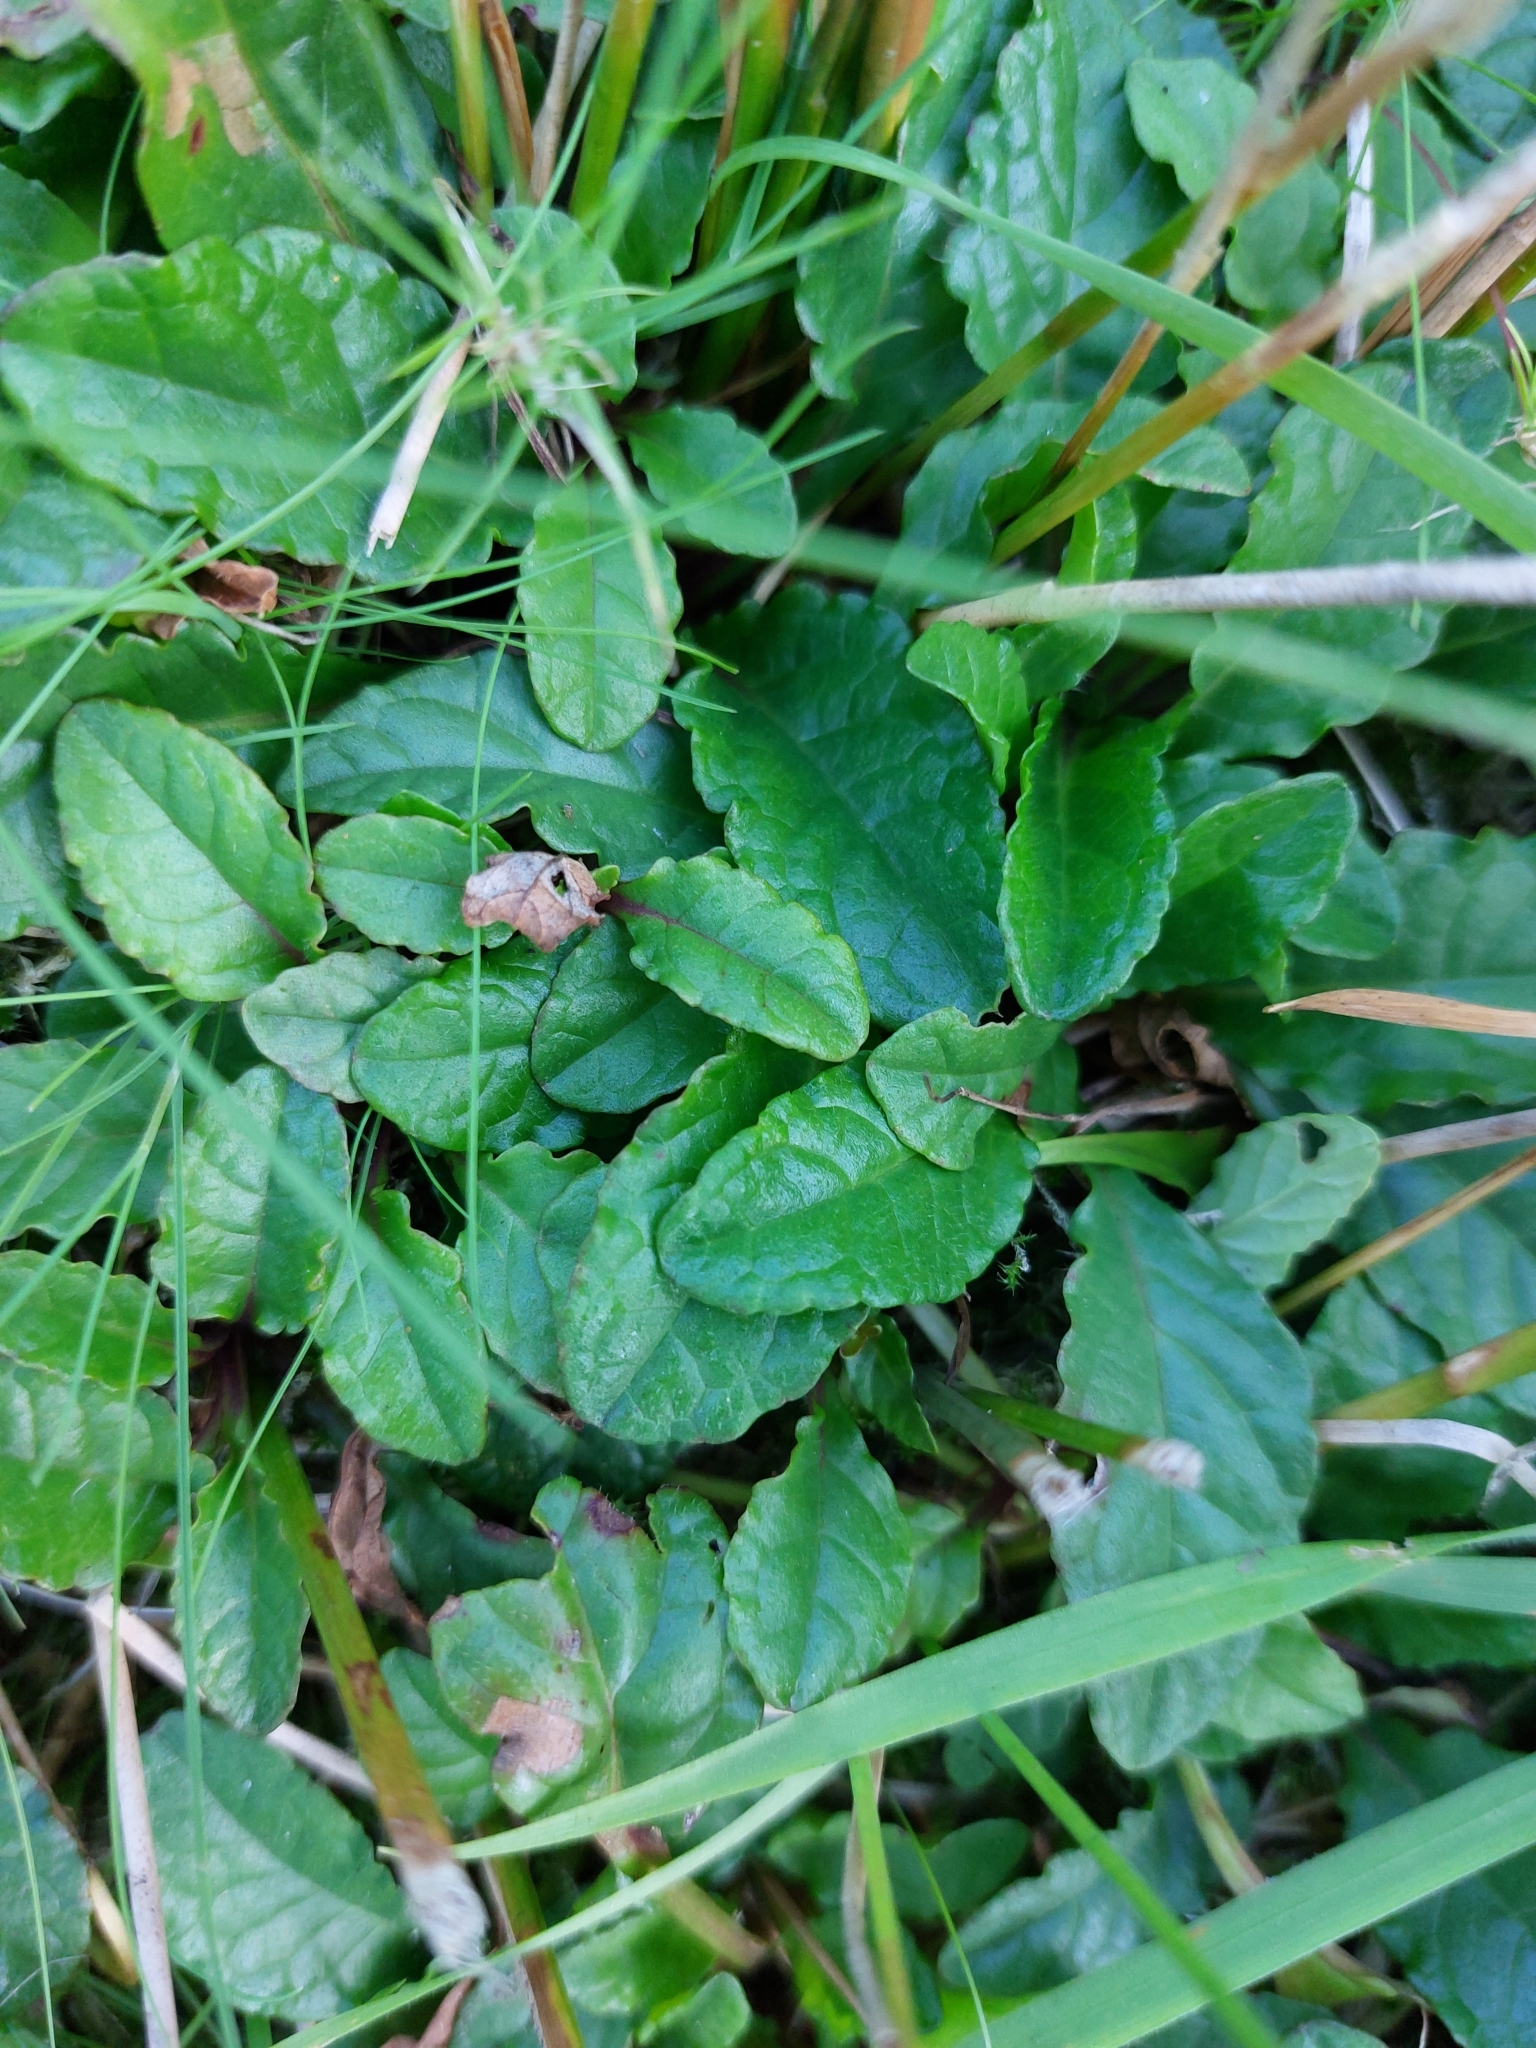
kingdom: Plantae
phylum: Tracheophyta
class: Magnoliopsida
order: Lamiales
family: Lamiaceae
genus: Ajuga
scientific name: Ajuga reptans
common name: Bugle
